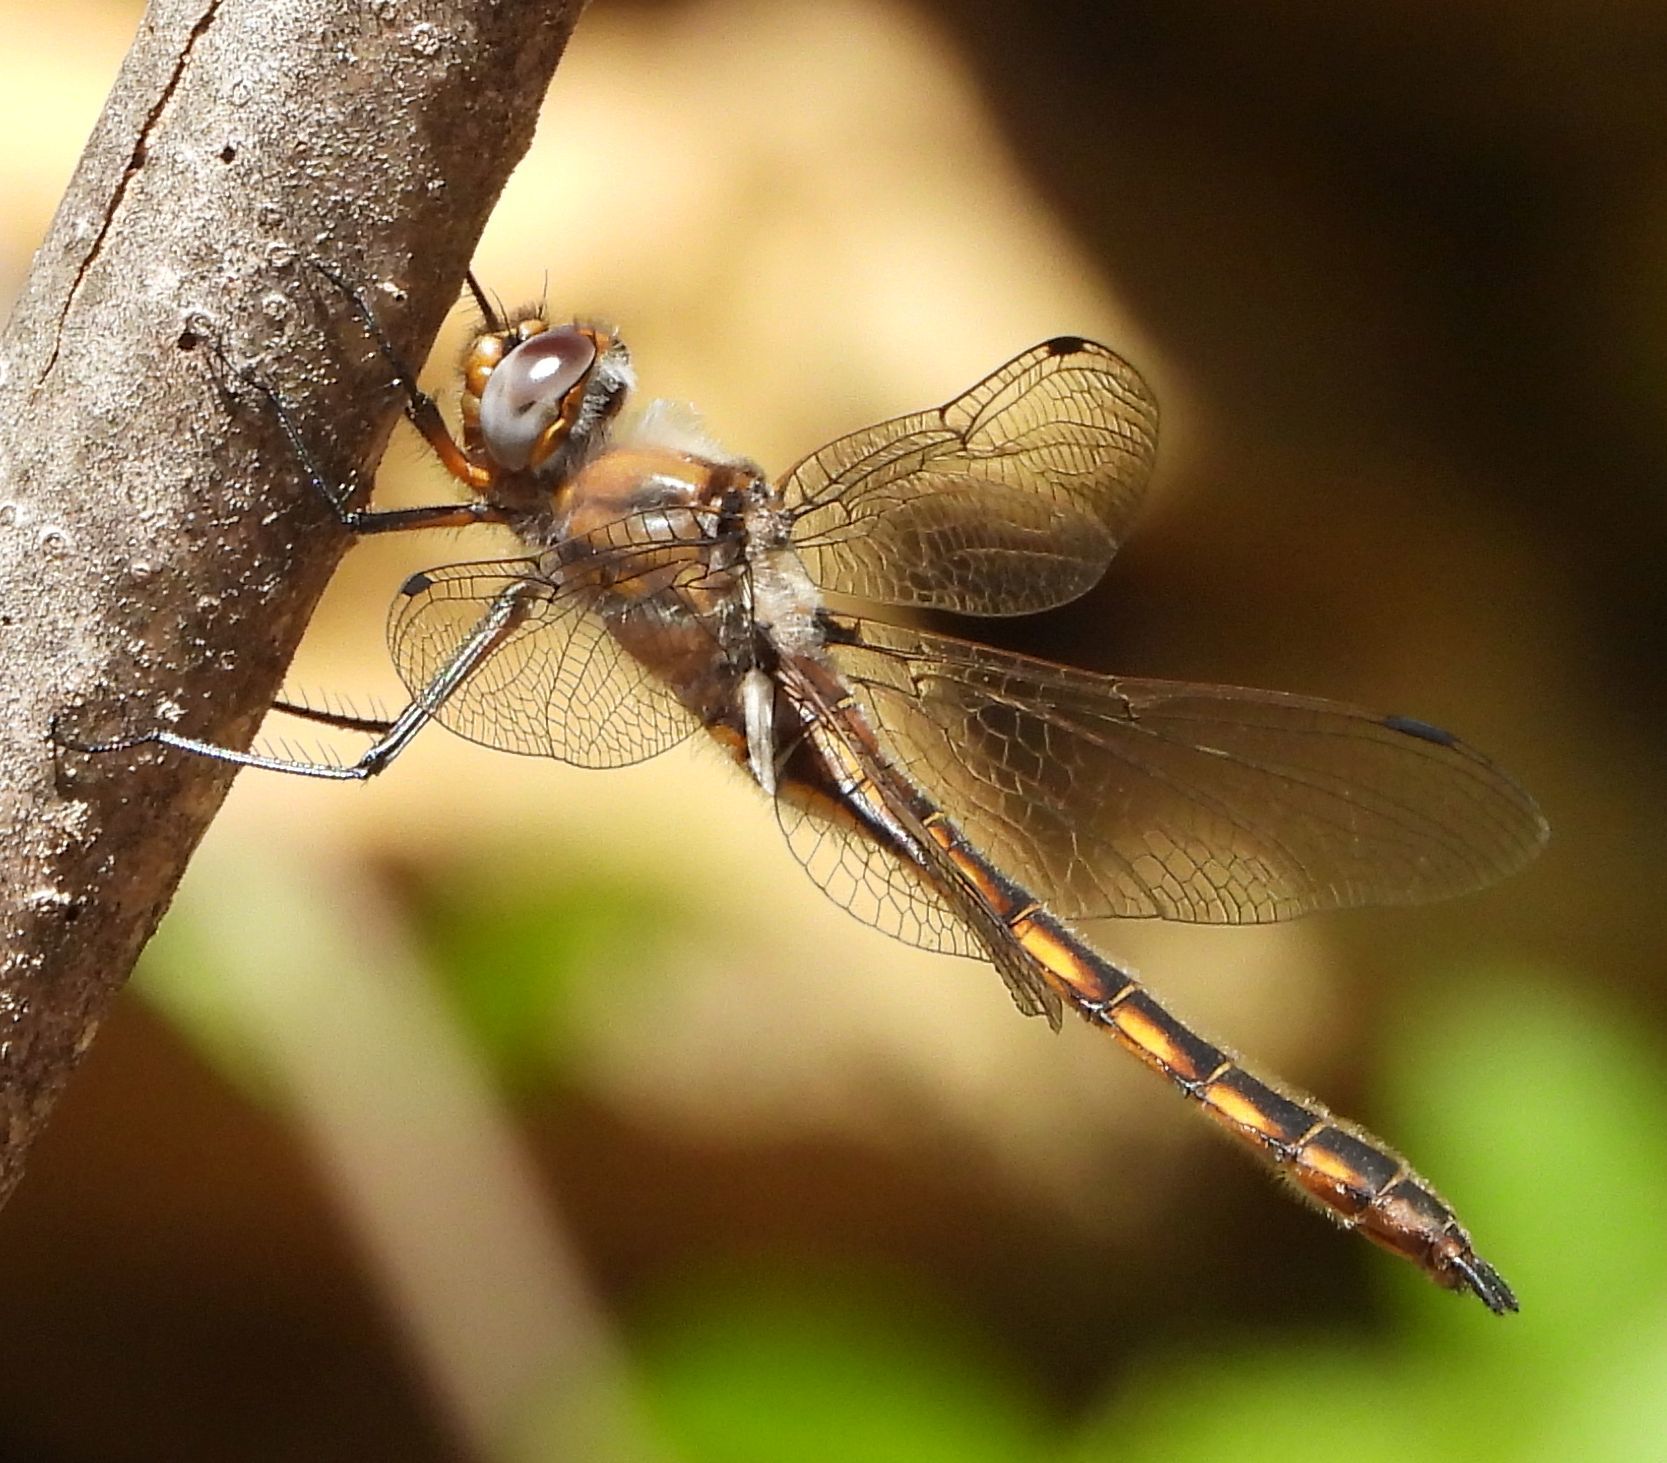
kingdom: Animalia
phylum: Arthropoda
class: Insecta
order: Odonata
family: Corduliidae
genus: Epitheca
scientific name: Epitheca canis
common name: Beaverpond baskettail
